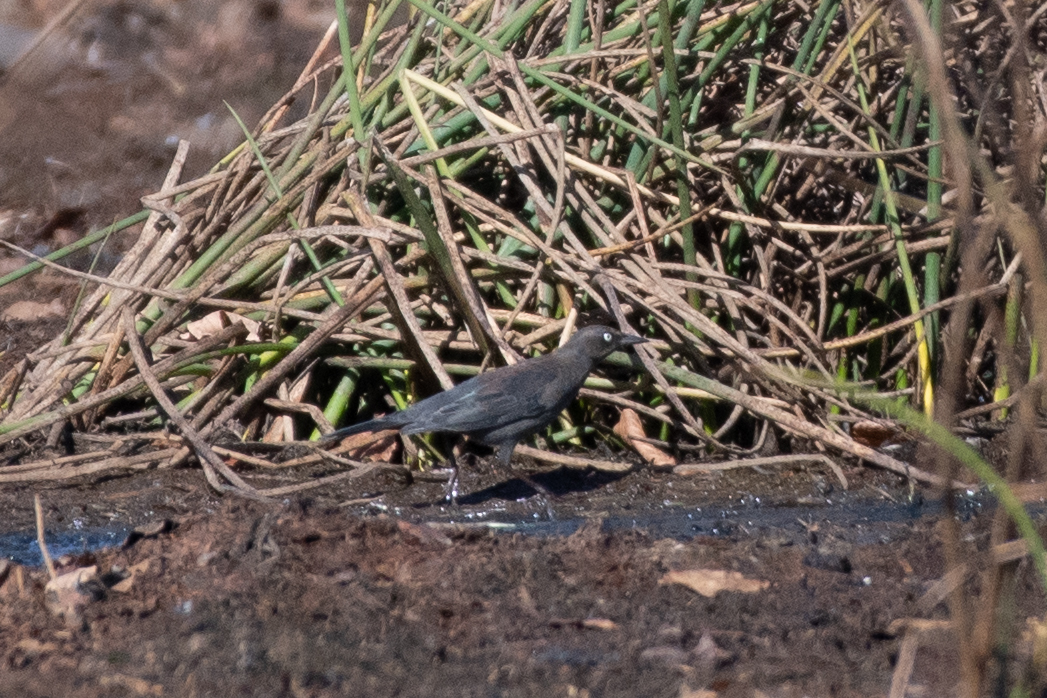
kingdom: Animalia
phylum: Chordata
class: Aves
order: Passeriformes
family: Icteridae
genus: Euphagus
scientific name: Euphagus carolinus
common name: Rusty blackbird
